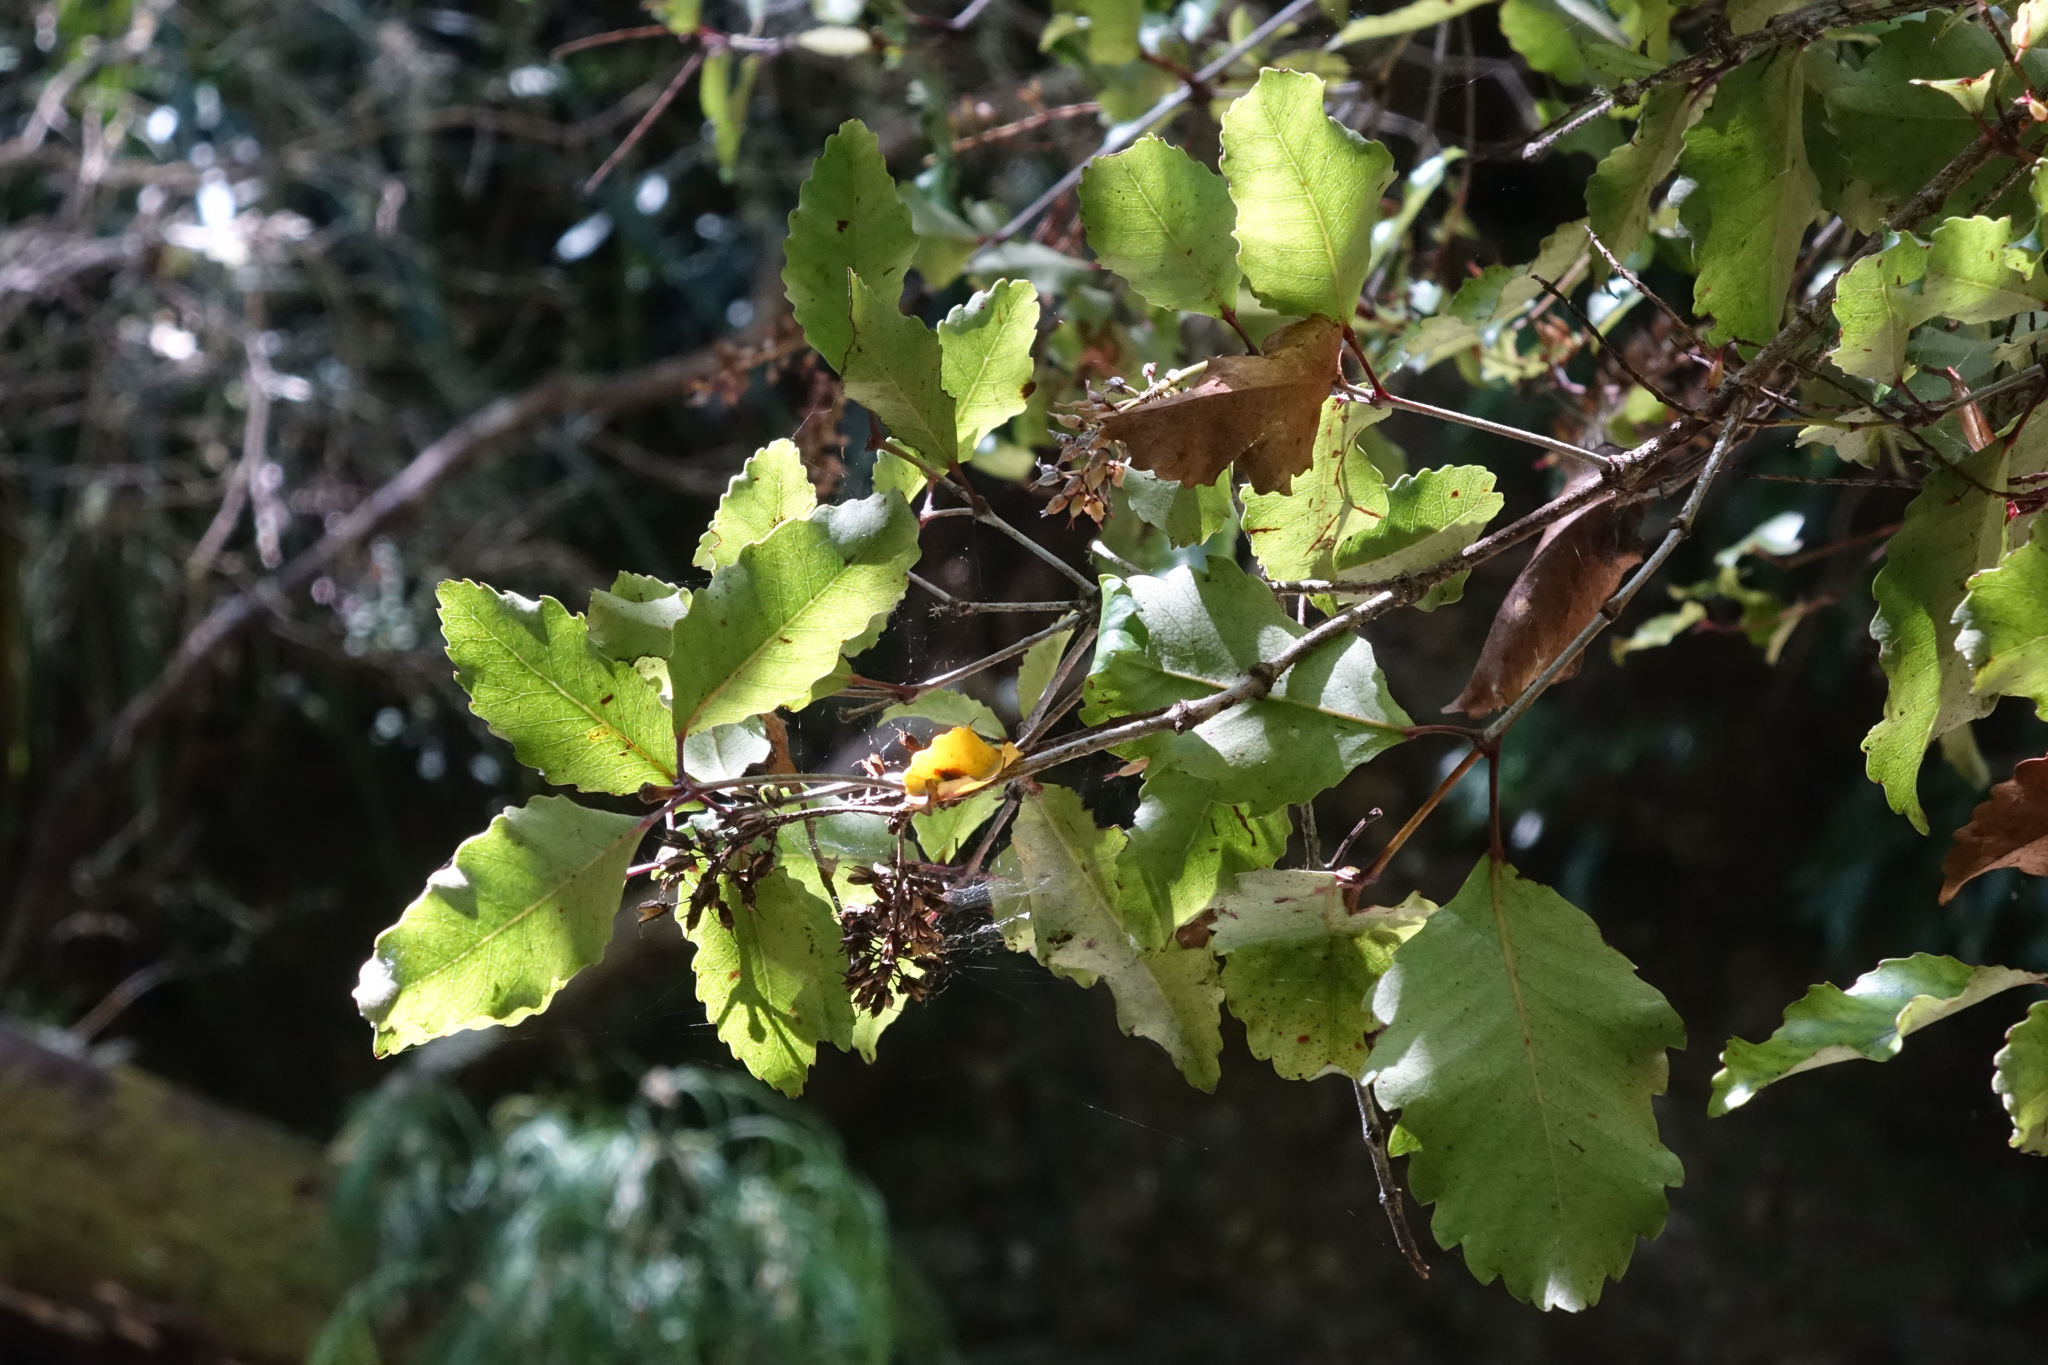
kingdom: Plantae
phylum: Tracheophyta
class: Magnoliopsida
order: Oxalidales
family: Cunoniaceae
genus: Pterophylla
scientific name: Pterophylla racemosa
